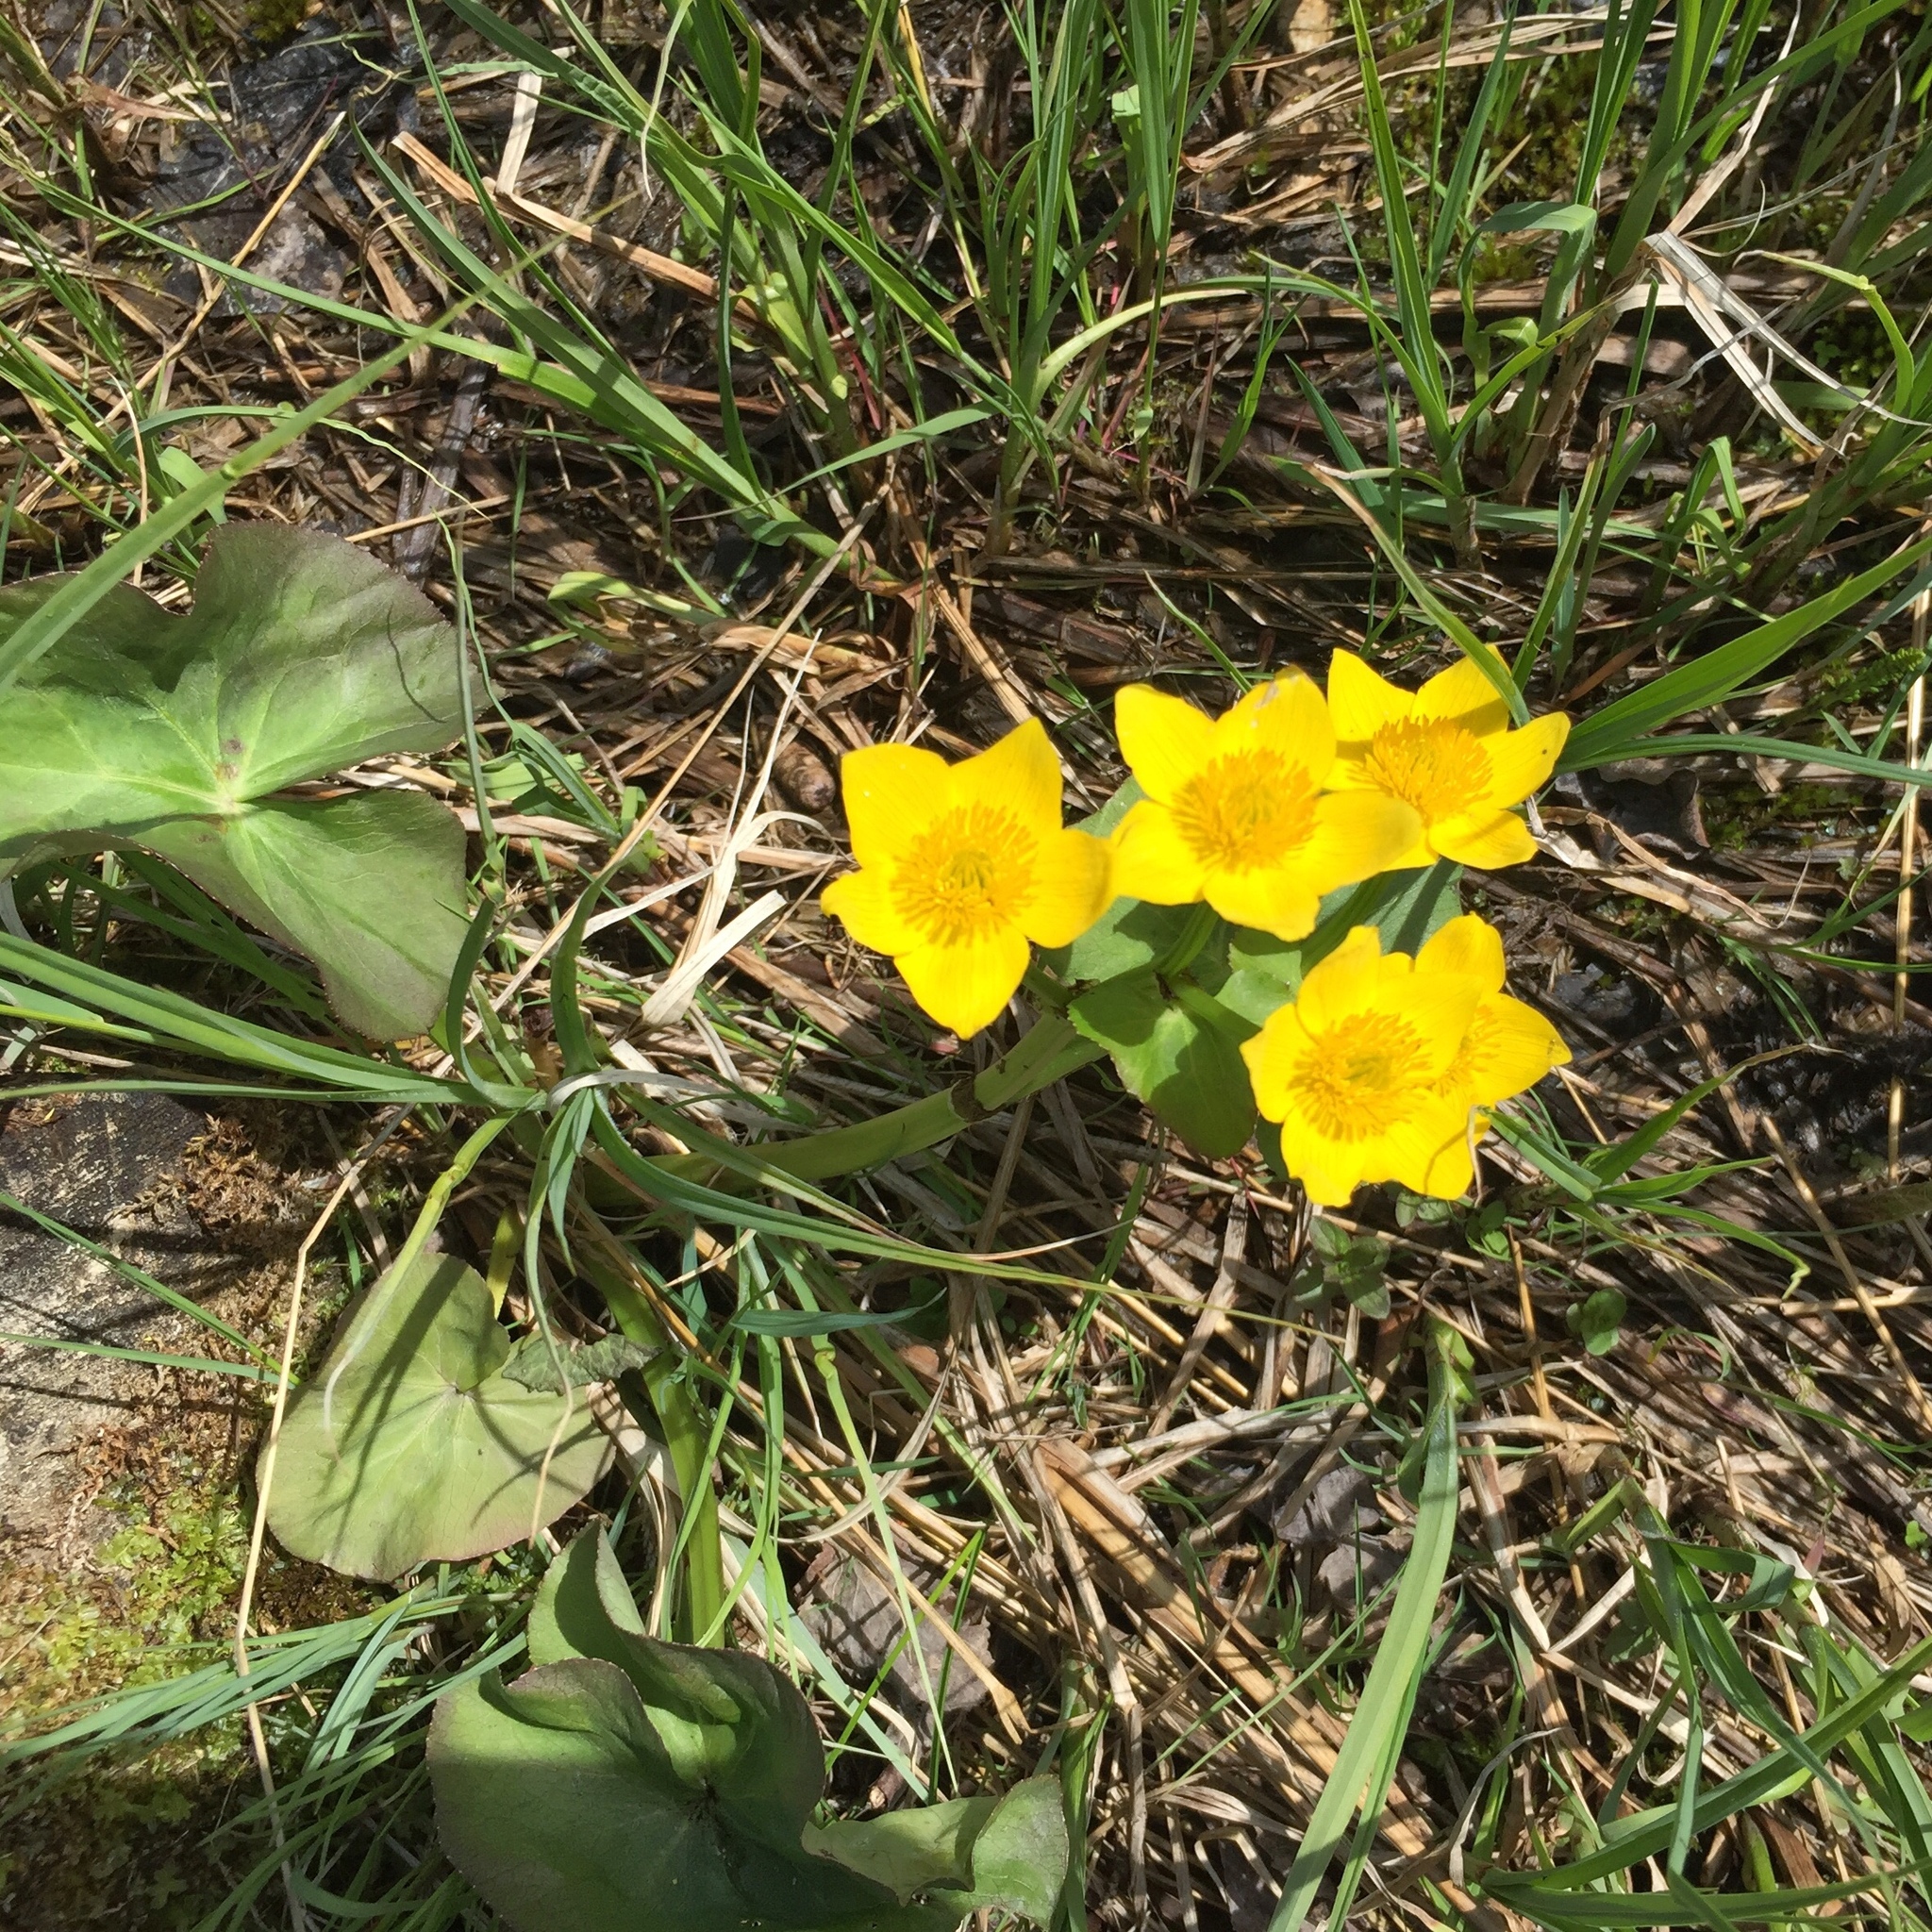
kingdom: Plantae
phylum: Tracheophyta
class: Magnoliopsida
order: Ranunculales
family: Ranunculaceae
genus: Caltha
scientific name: Caltha palustris
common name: Marsh marigold
